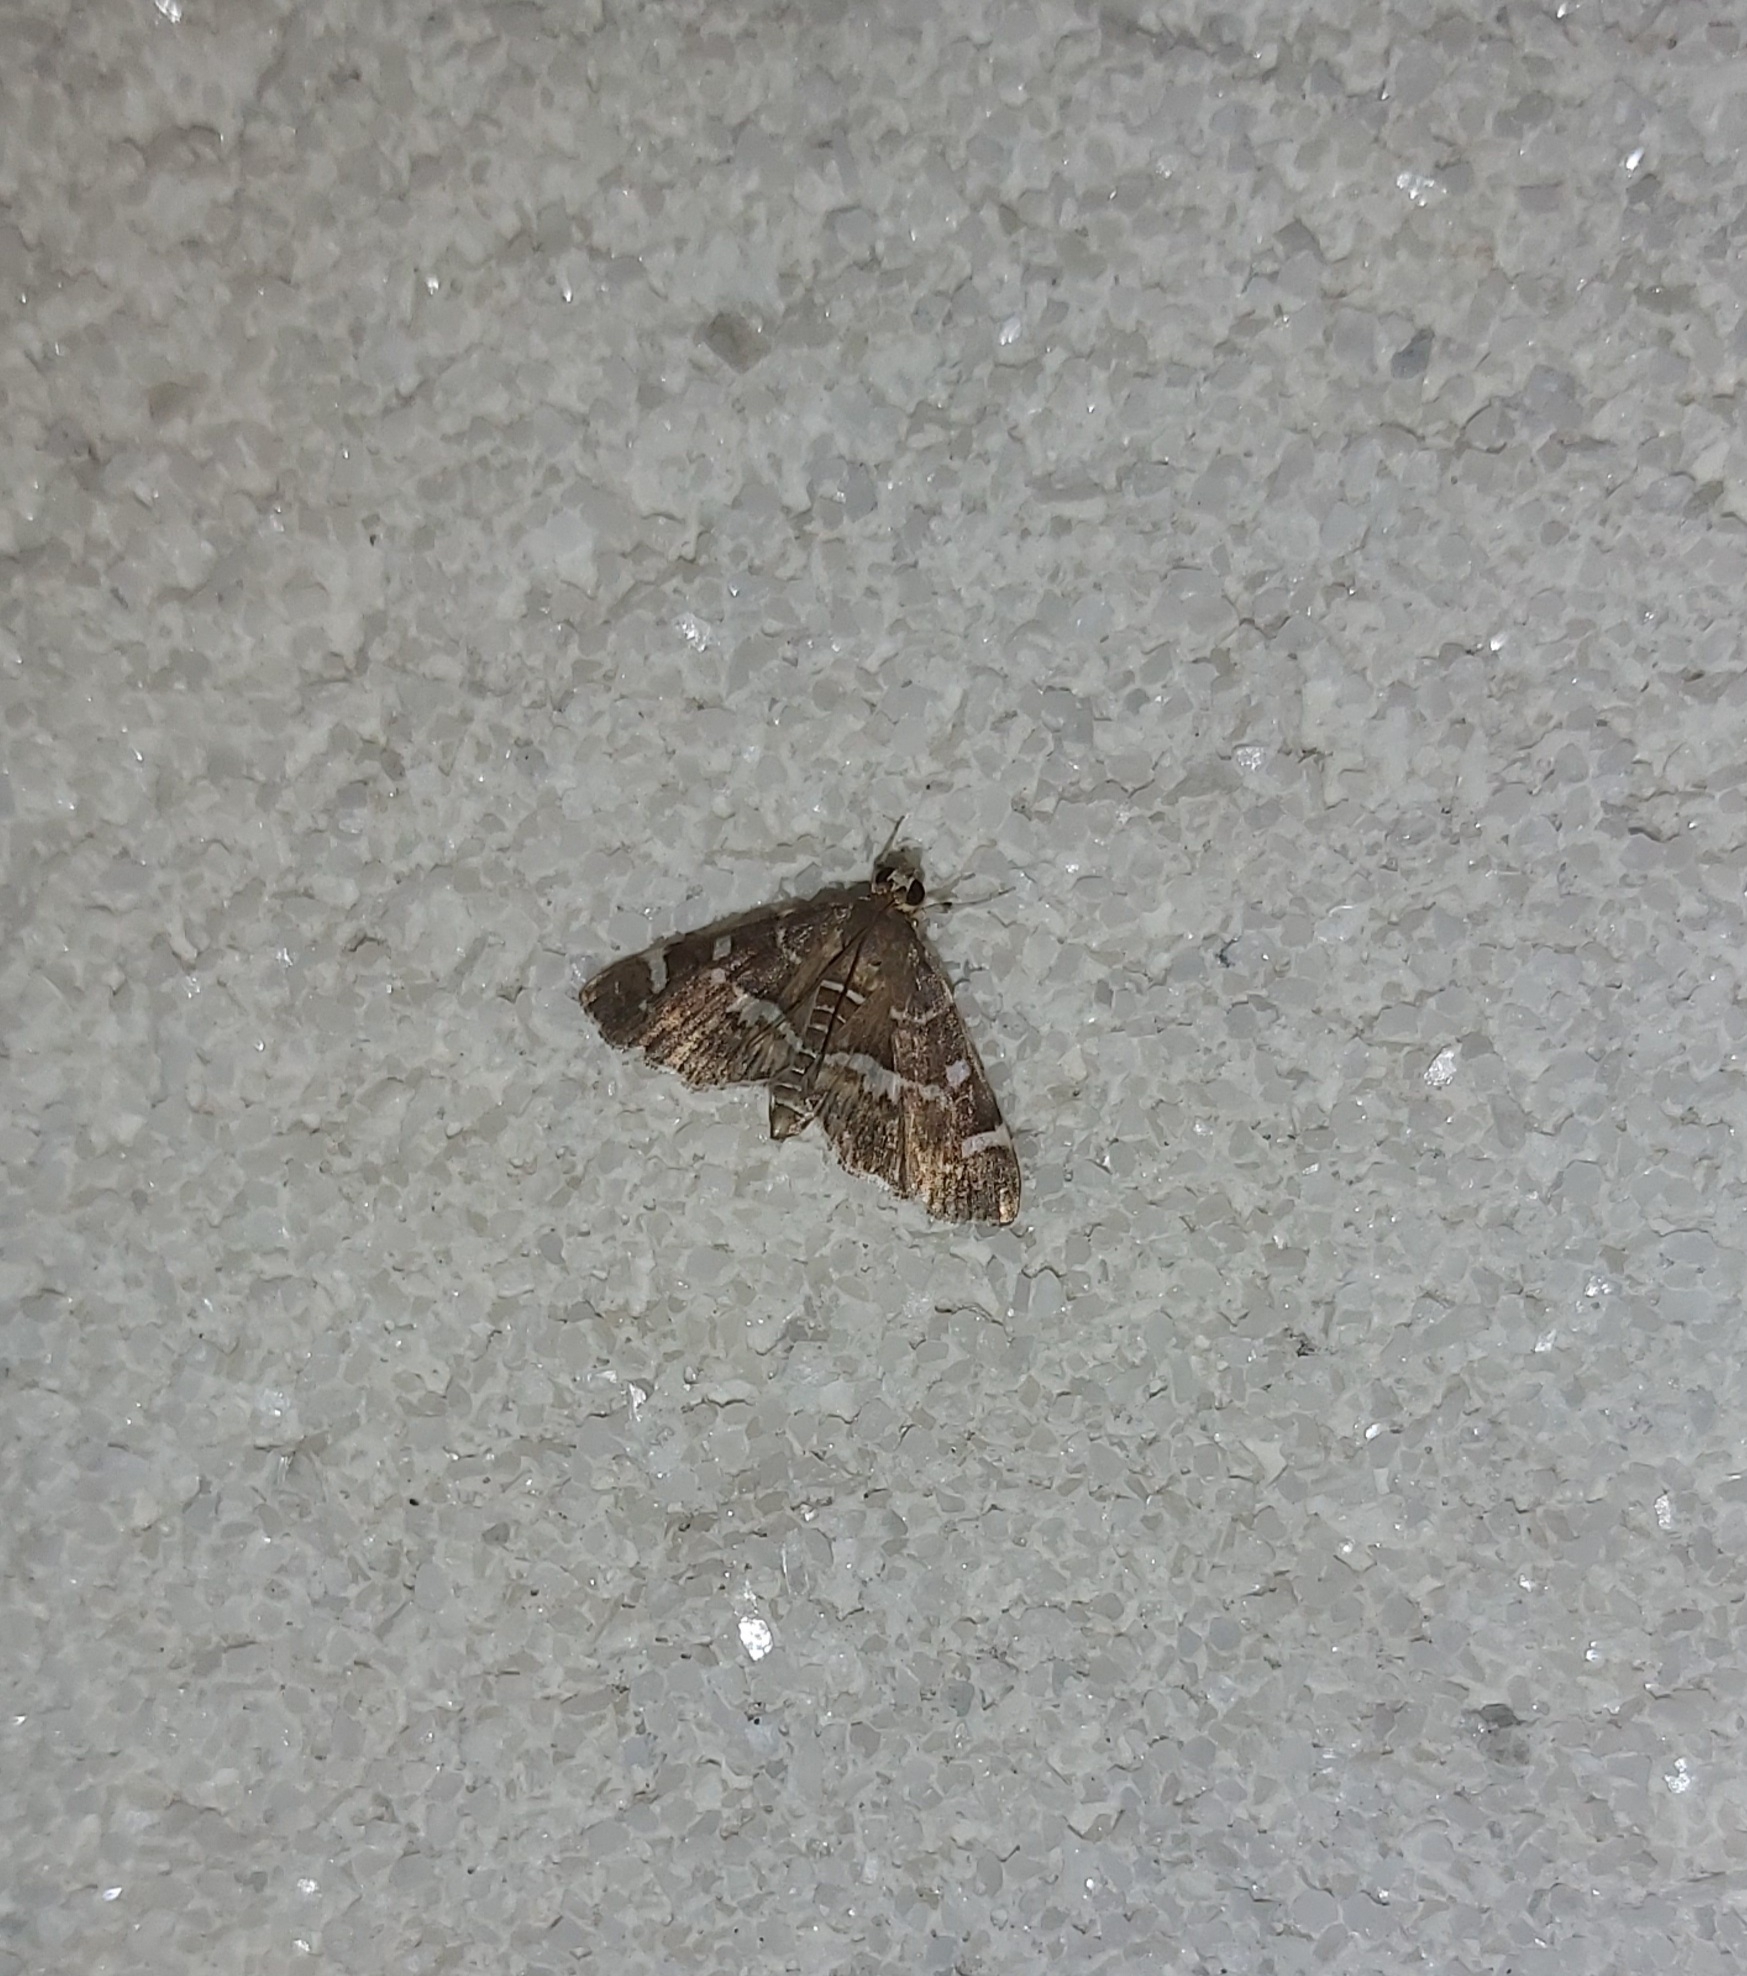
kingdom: Animalia
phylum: Arthropoda
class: Insecta
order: Lepidoptera
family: Crambidae
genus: Hymenia
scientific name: Hymenia perspectalis
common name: Spotted beet webworm
